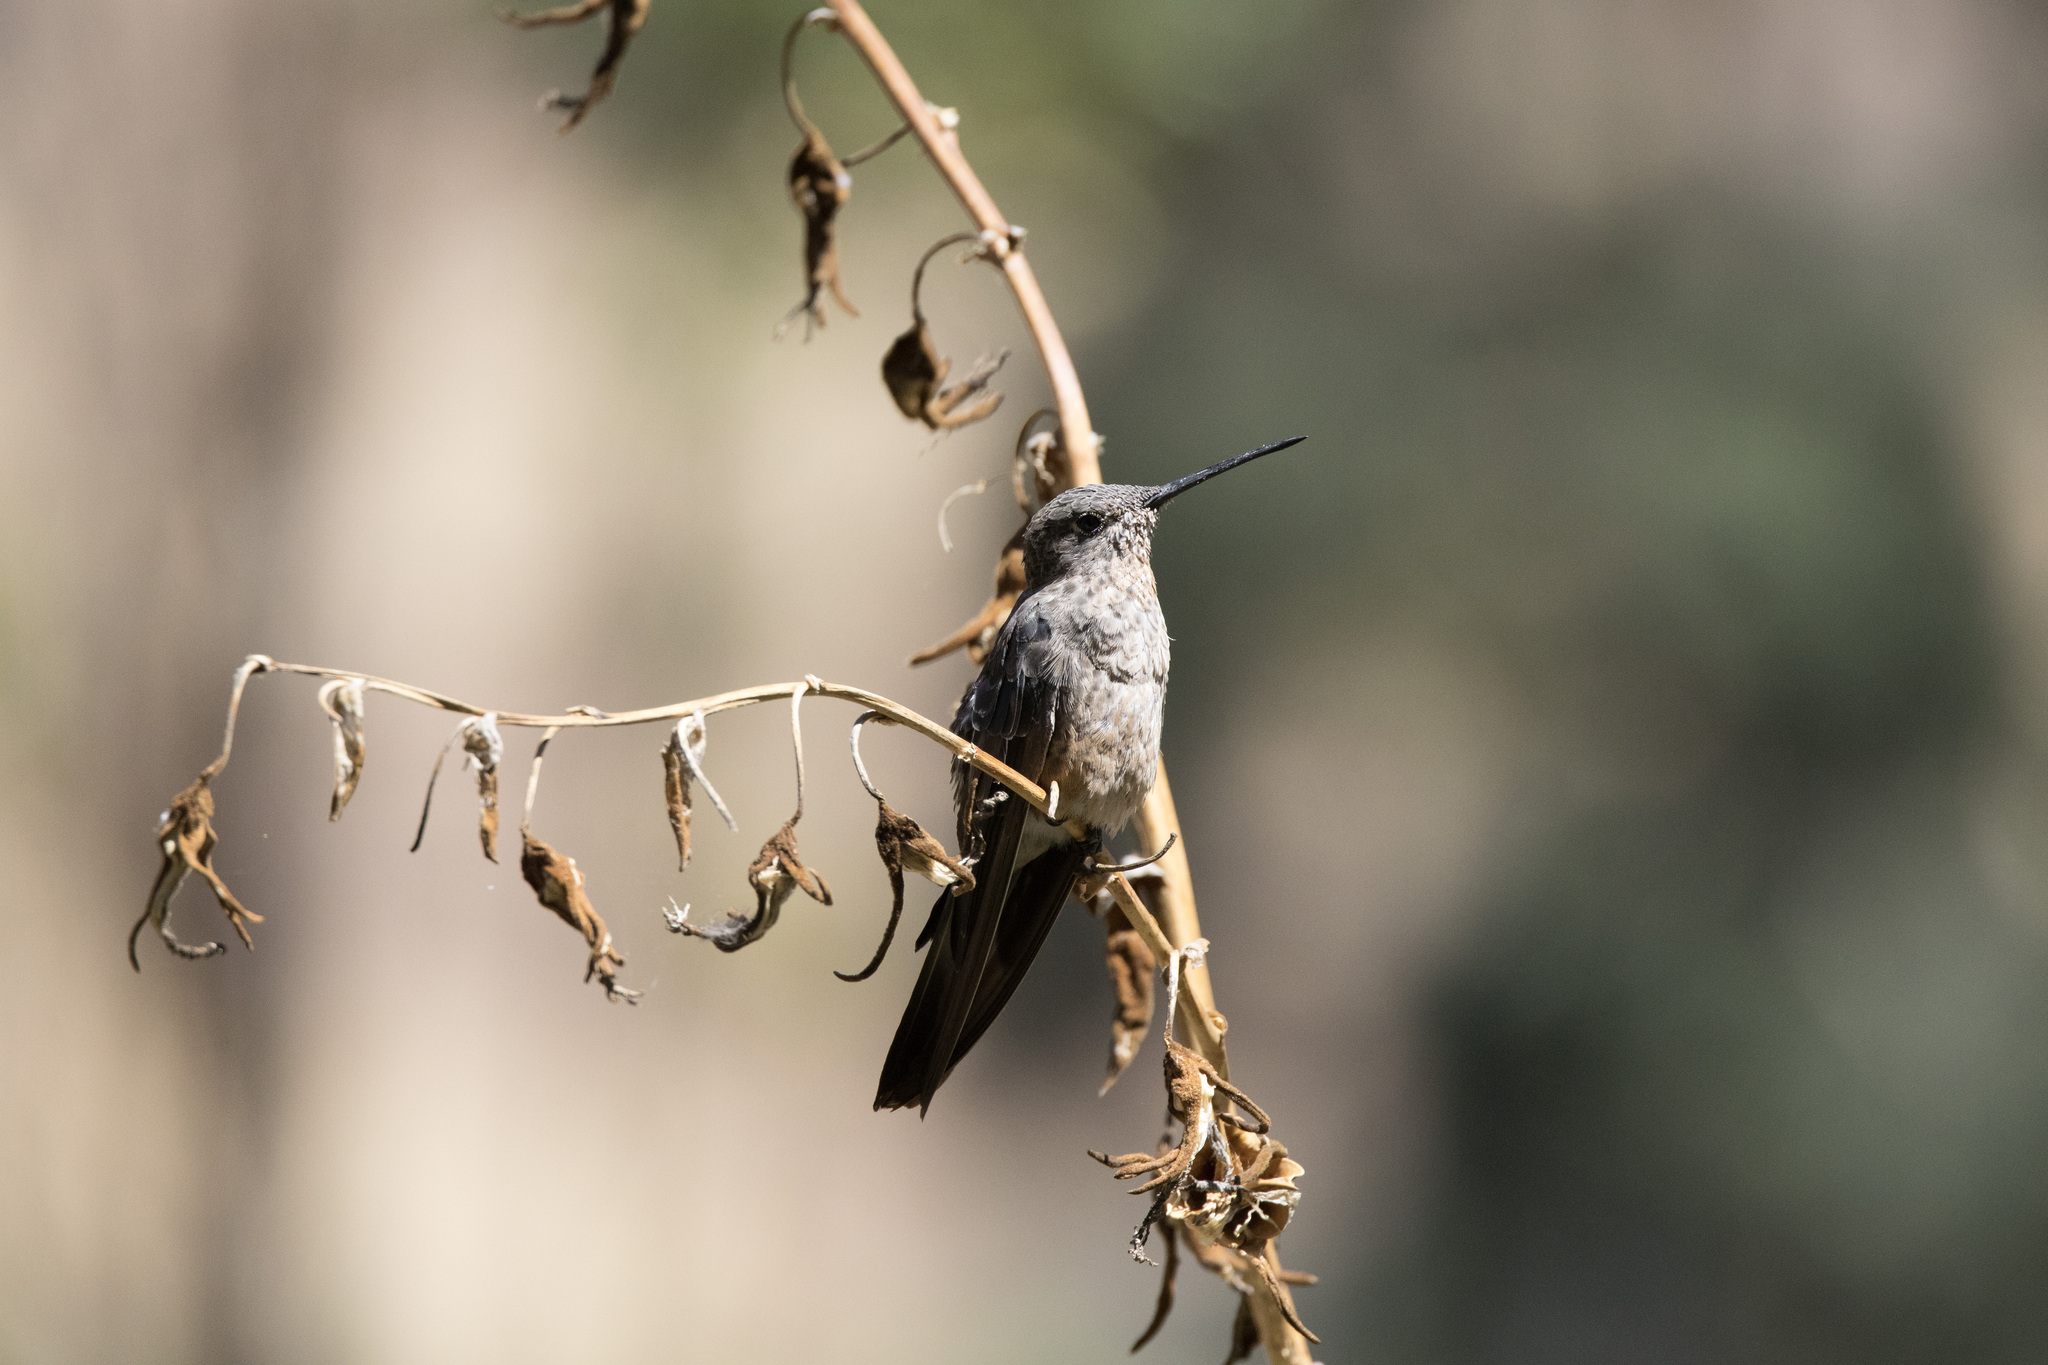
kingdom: Animalia
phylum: Chordata
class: Aves
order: Apodiformes
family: Trochilidae
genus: Patagona
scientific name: Patagona gigas
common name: Giant hummingbird
